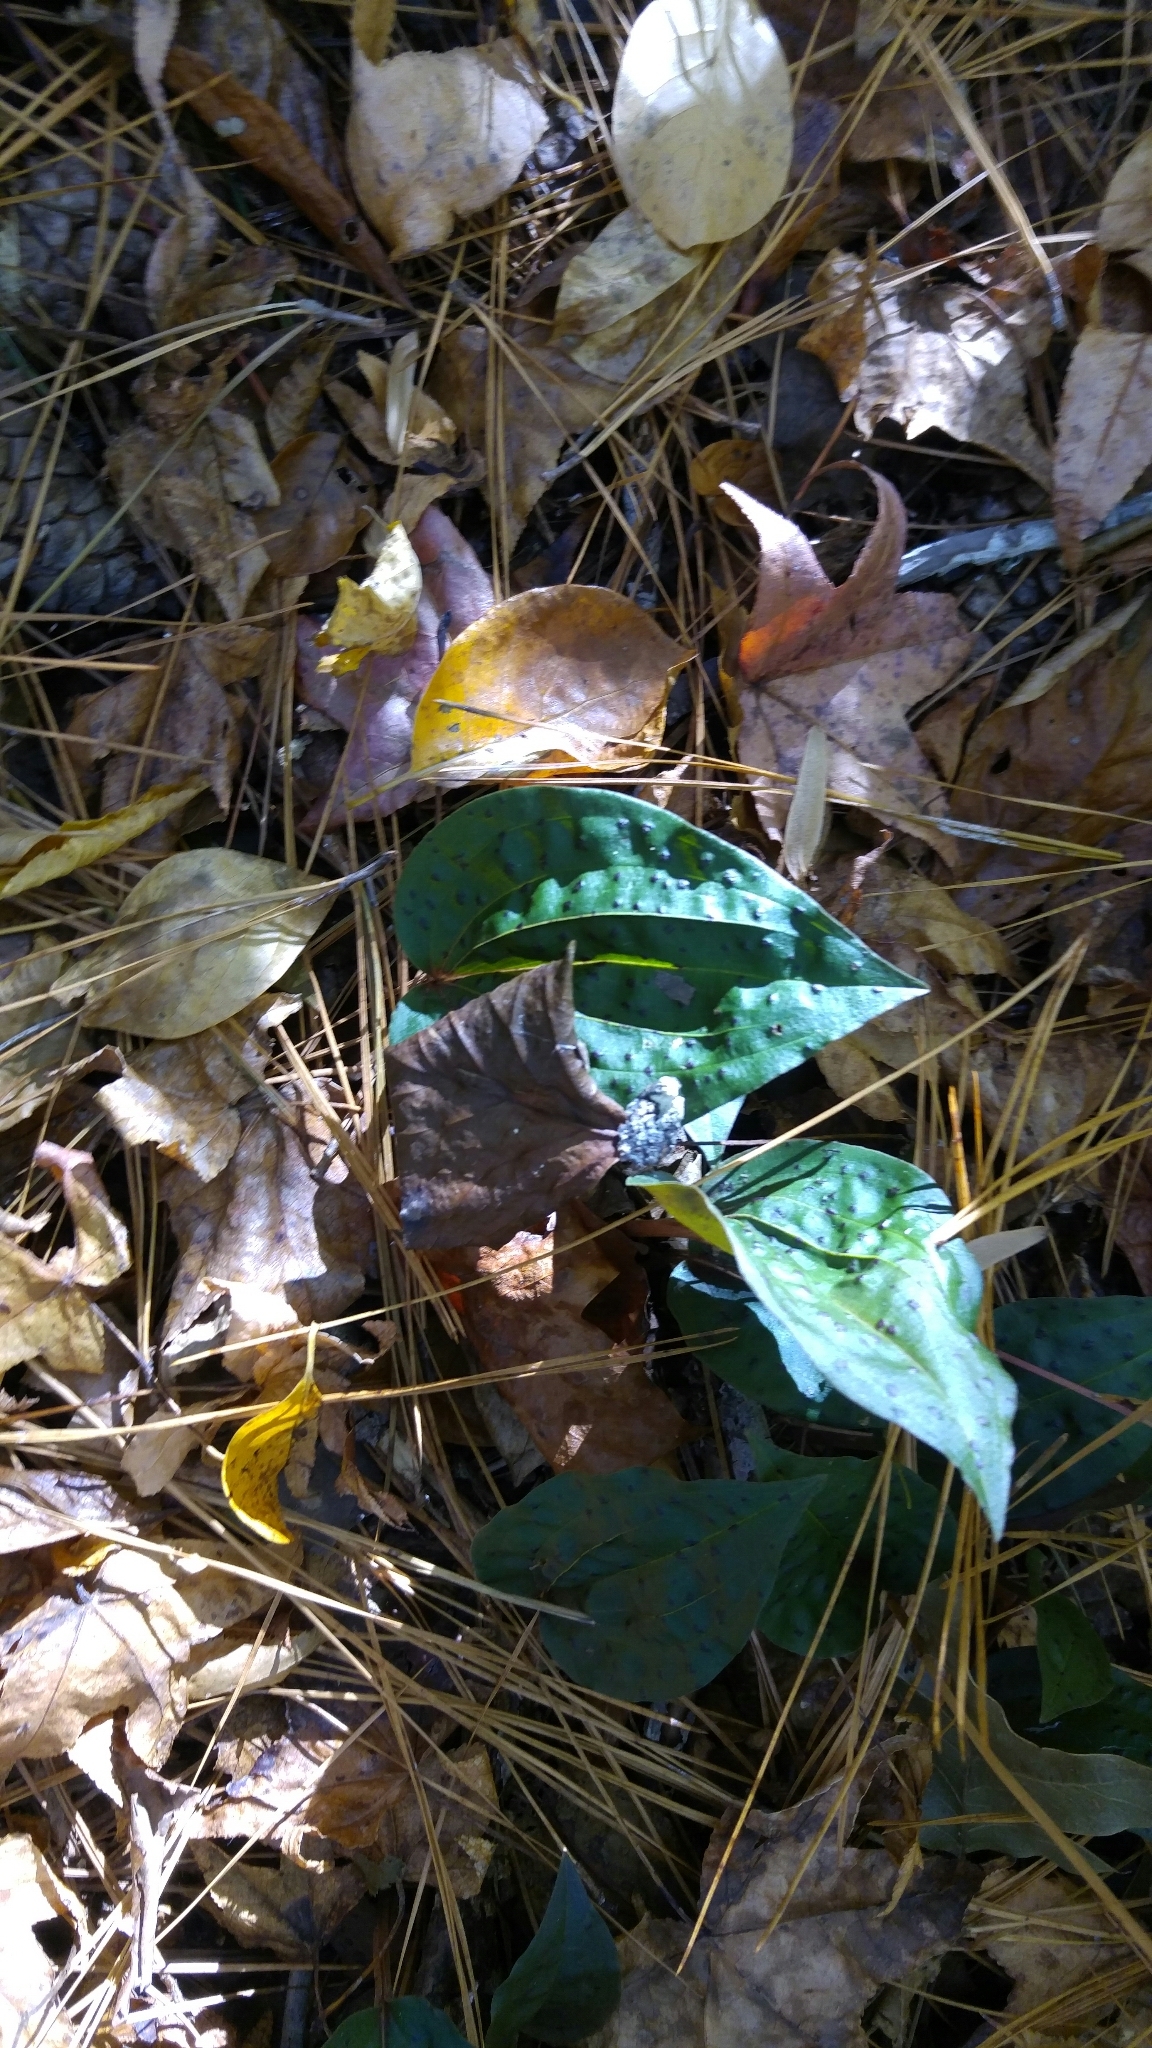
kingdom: Plantae
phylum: Tracheophyta
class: Liliopsida
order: Asparagales
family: Orchidaceae
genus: Tipularia
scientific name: Tipularia discolor
